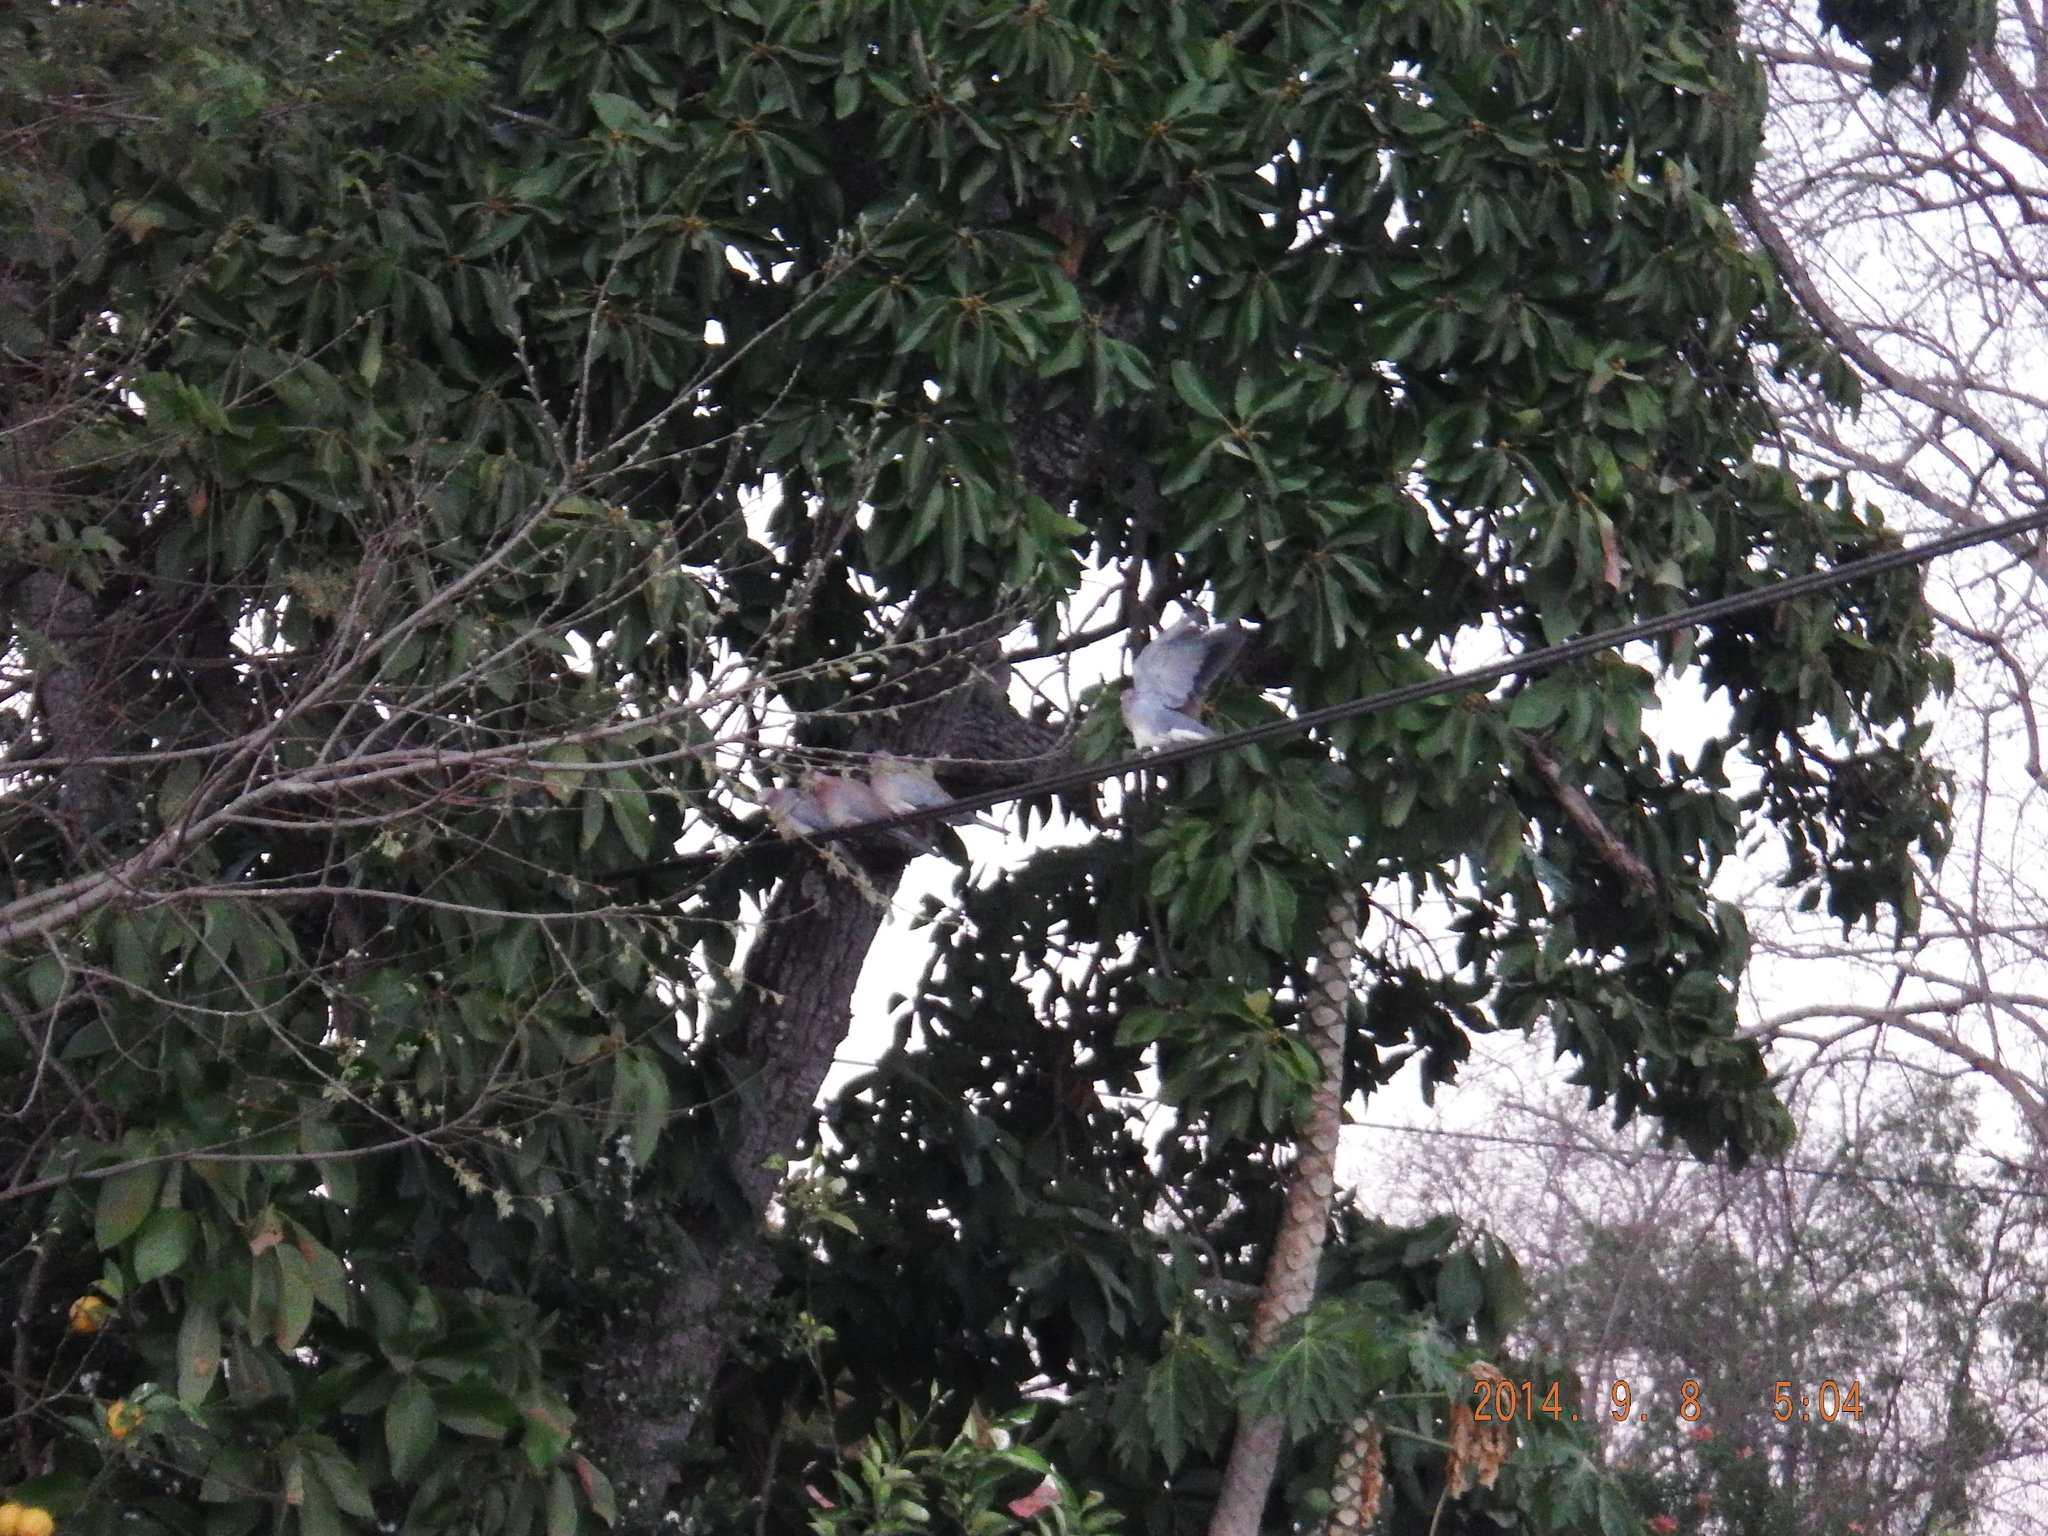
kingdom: Animalia
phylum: Chordata
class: Aves
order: Columbiformes
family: Columbidae
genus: Spilopelia
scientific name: Spilopelia senegalensis
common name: Laughing dove
